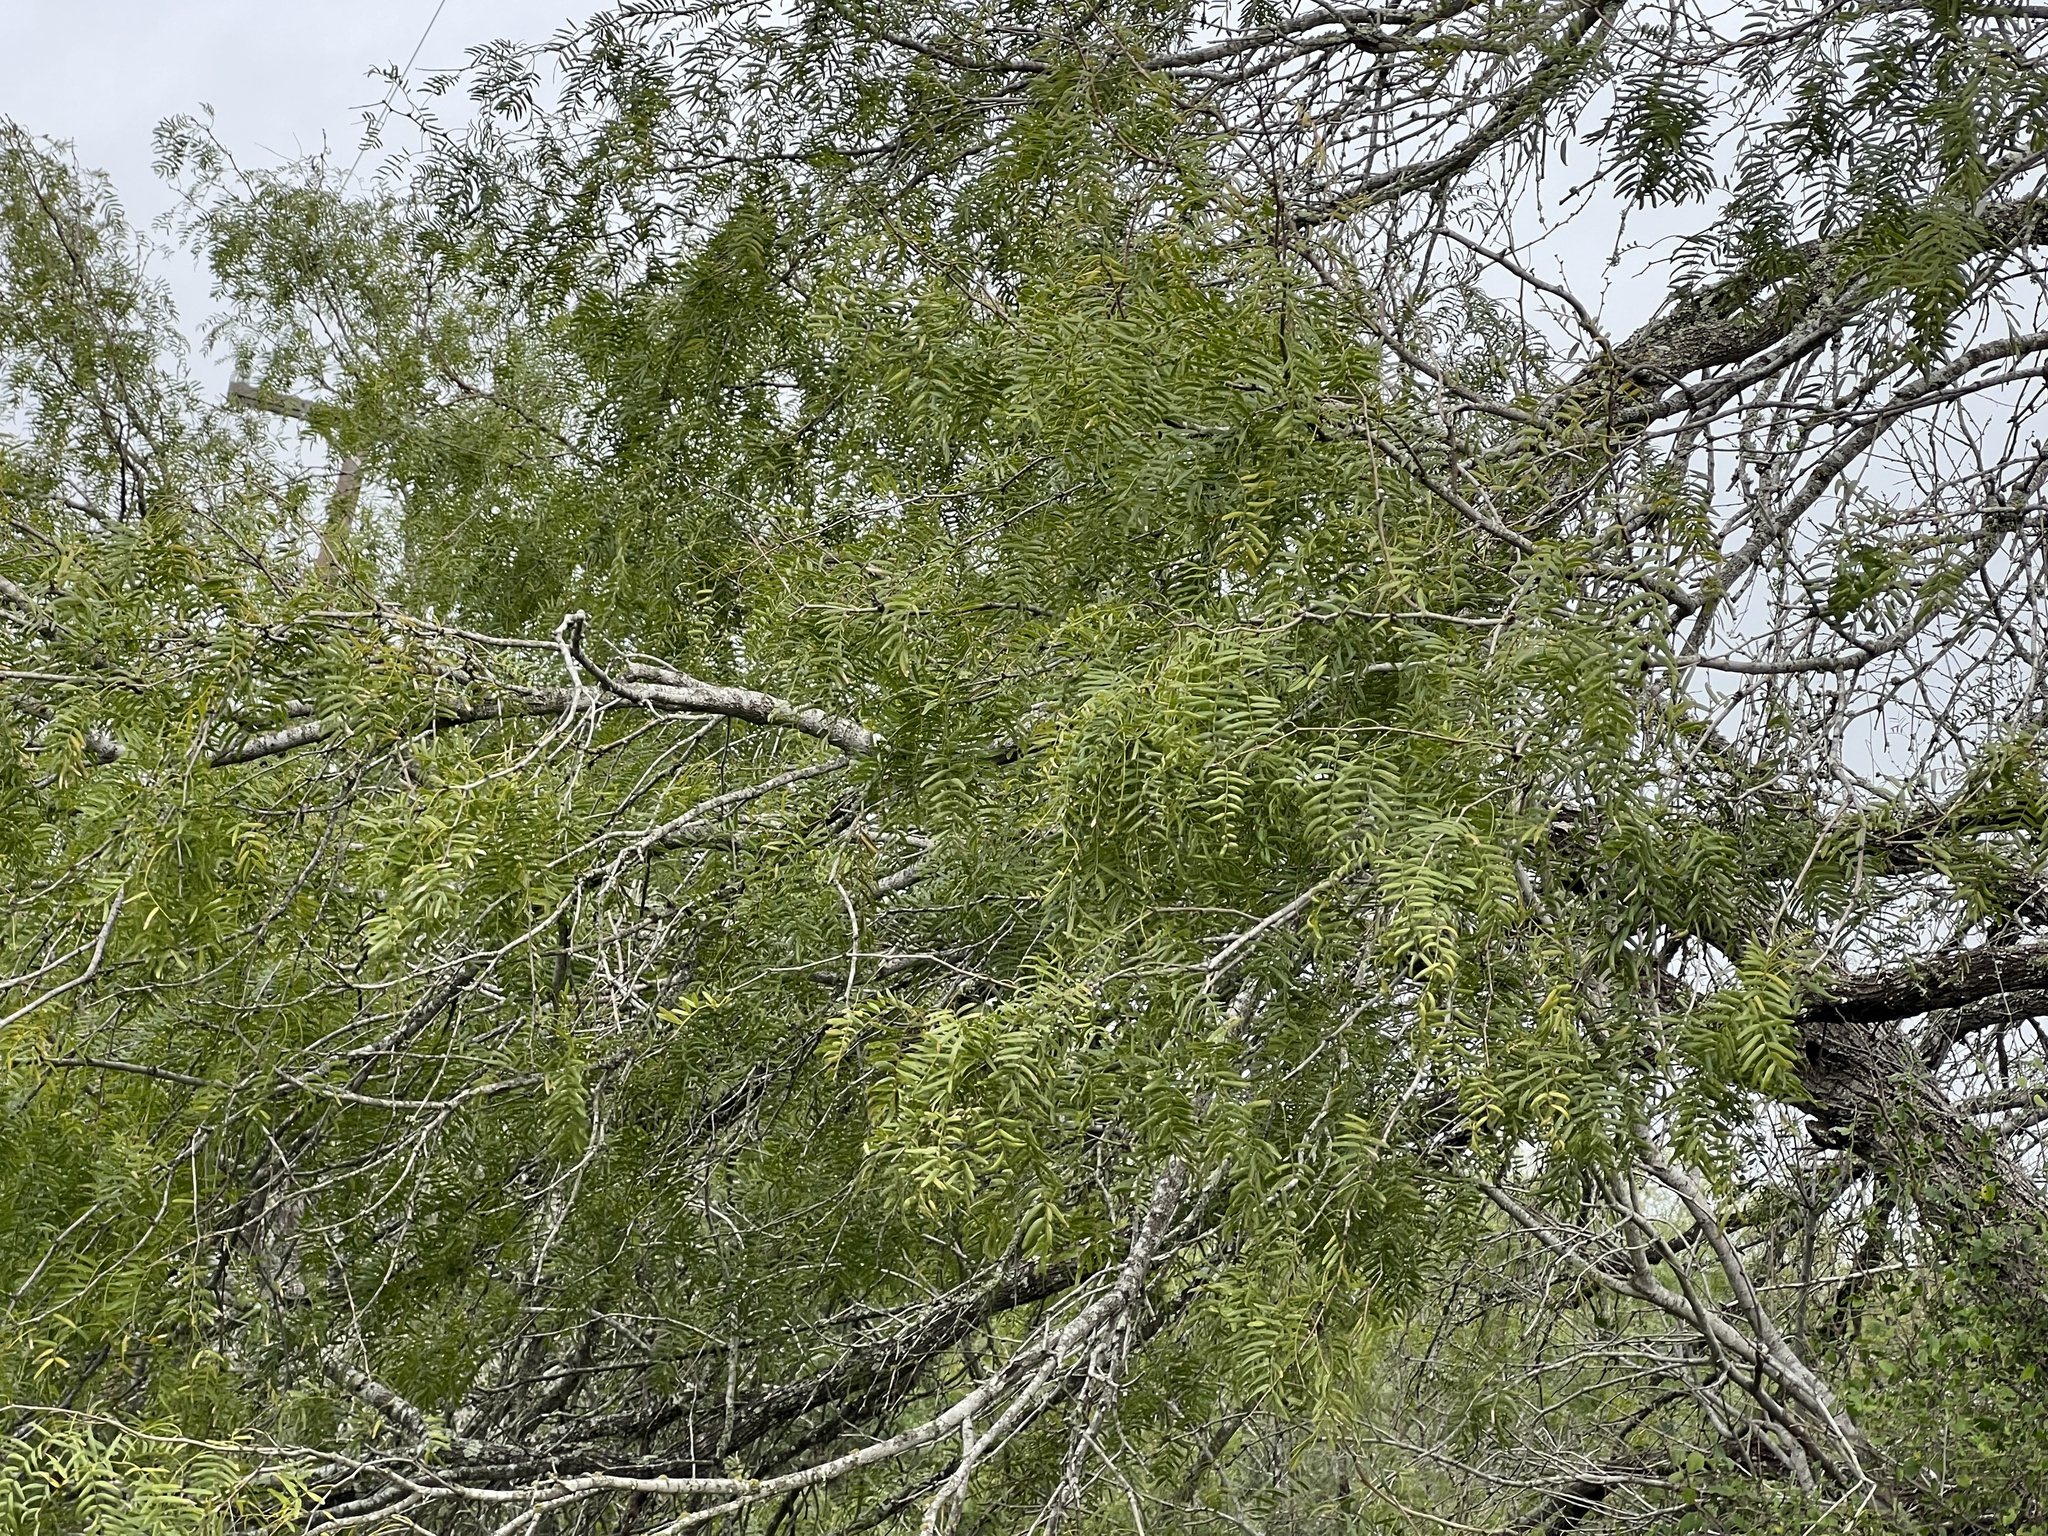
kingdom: Plantae
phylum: Tracheophyta
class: Magnoliopsida
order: Fabales
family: Fabaceae
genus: Prosopis
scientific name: Prosopis glandulosa
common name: Honey mesquite
